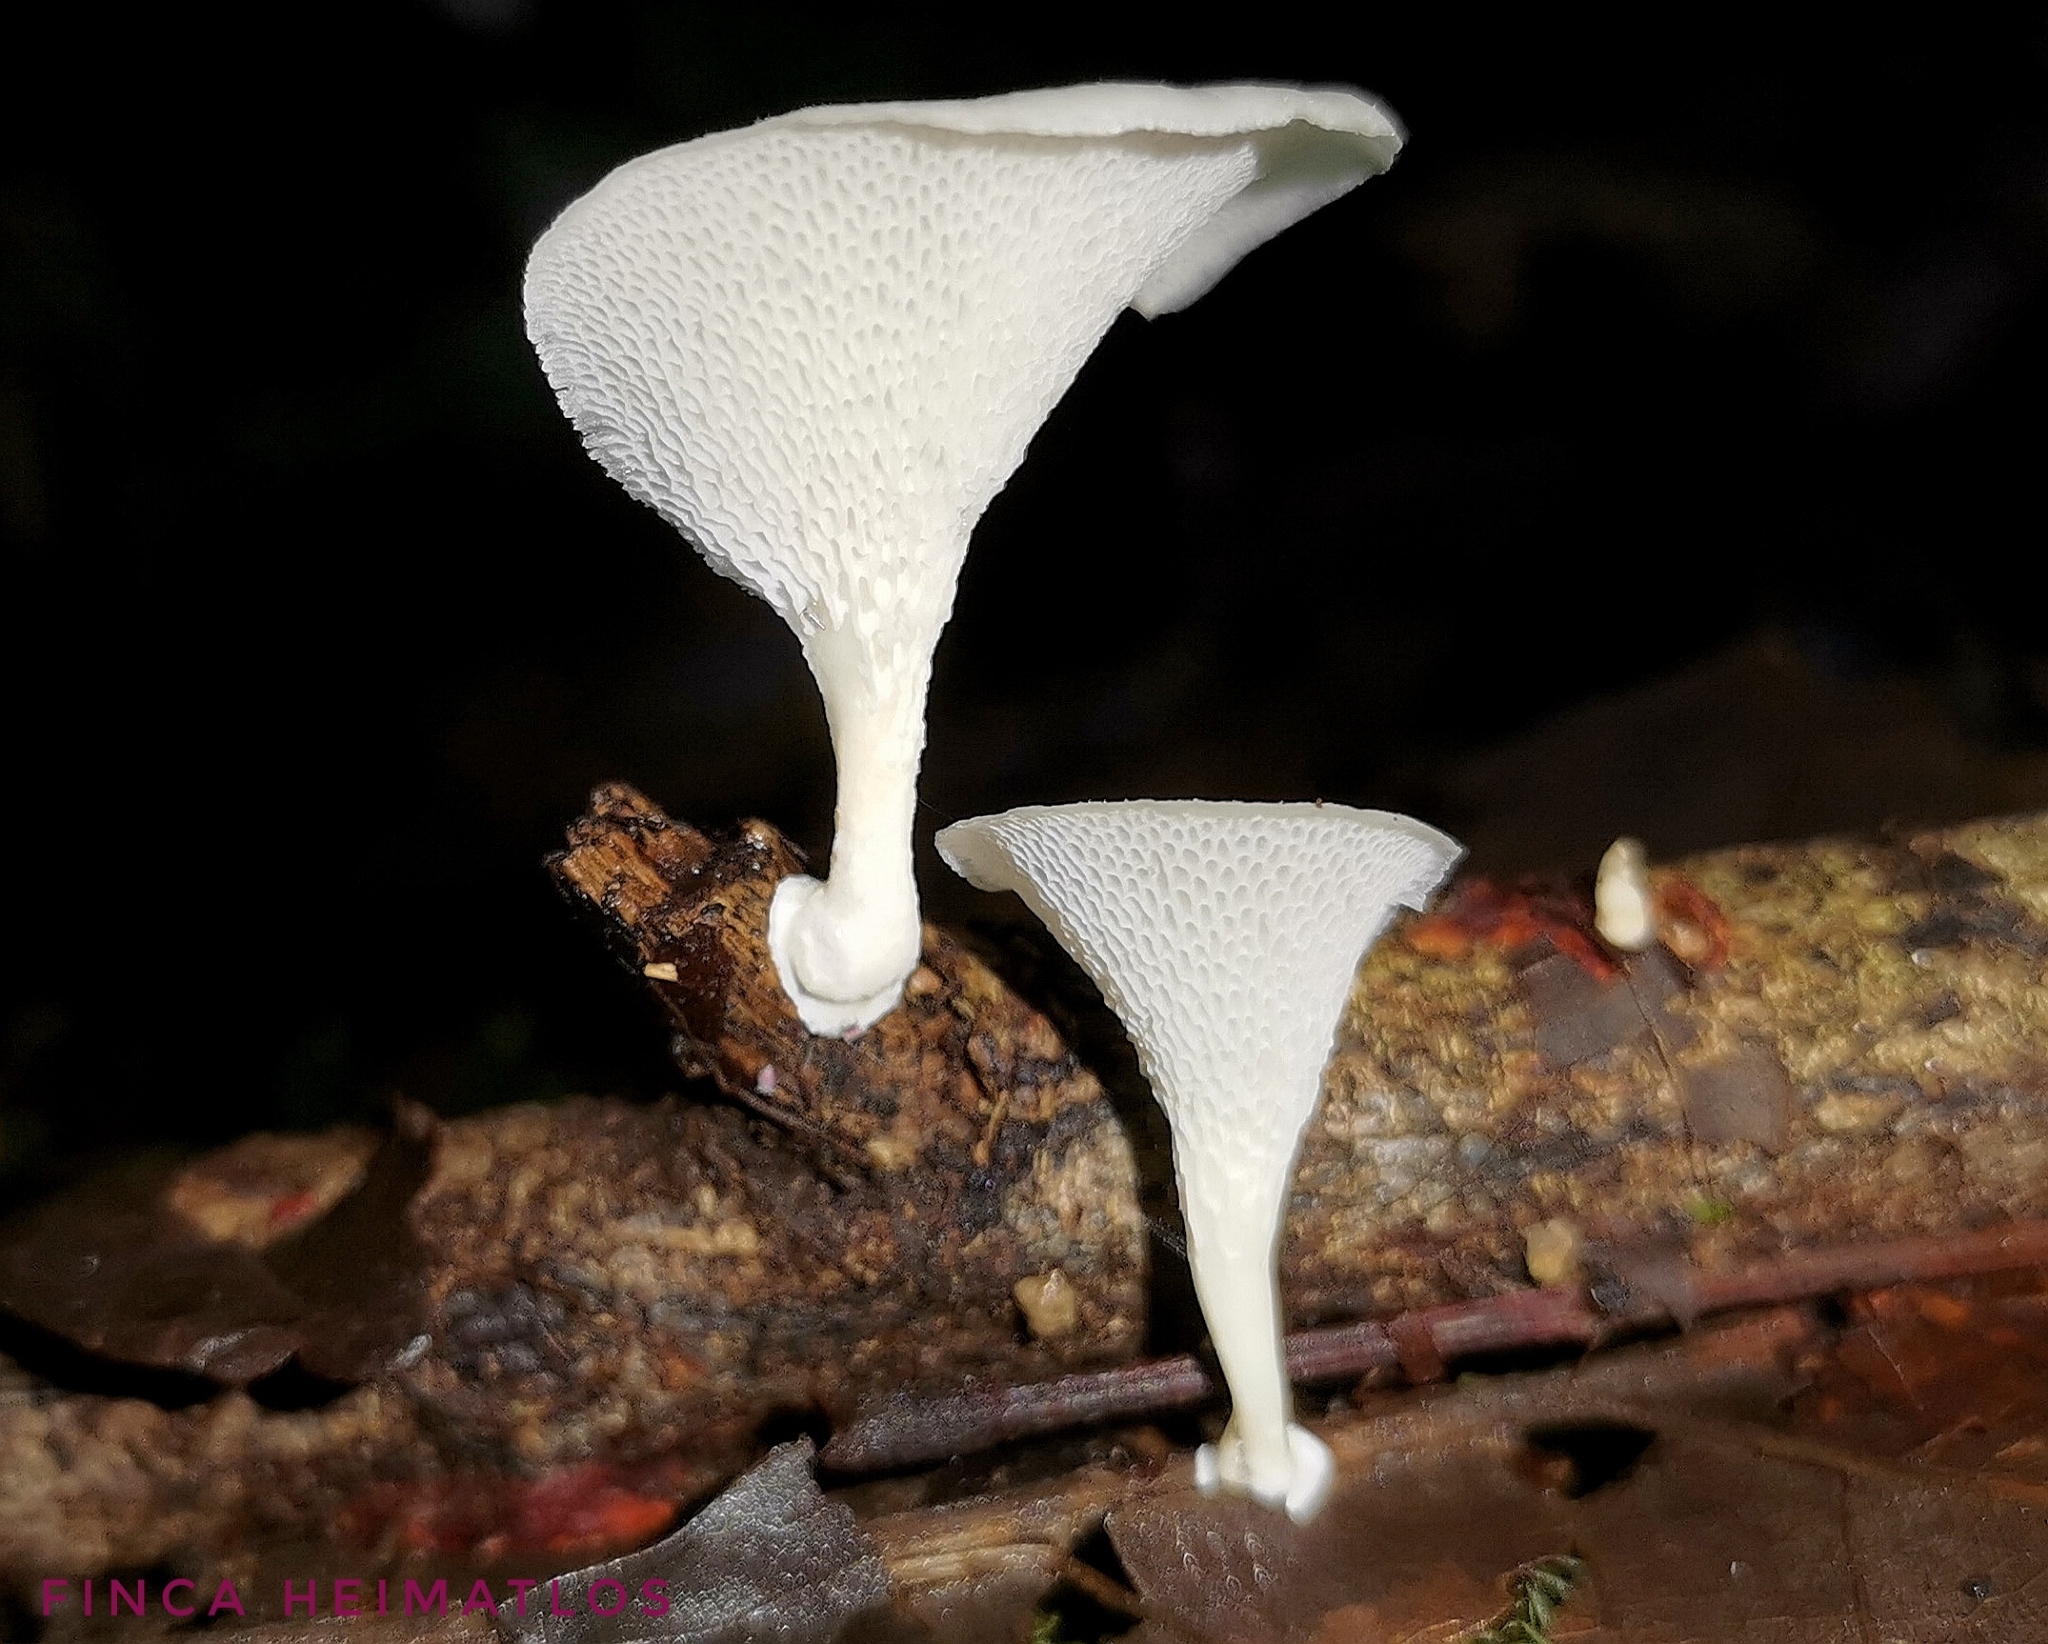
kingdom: Fungi
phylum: Basidiomycota
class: Agaricomycetes
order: Polyporales
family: Polyporaceae
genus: Favolus
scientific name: Favolus tenuiculus
